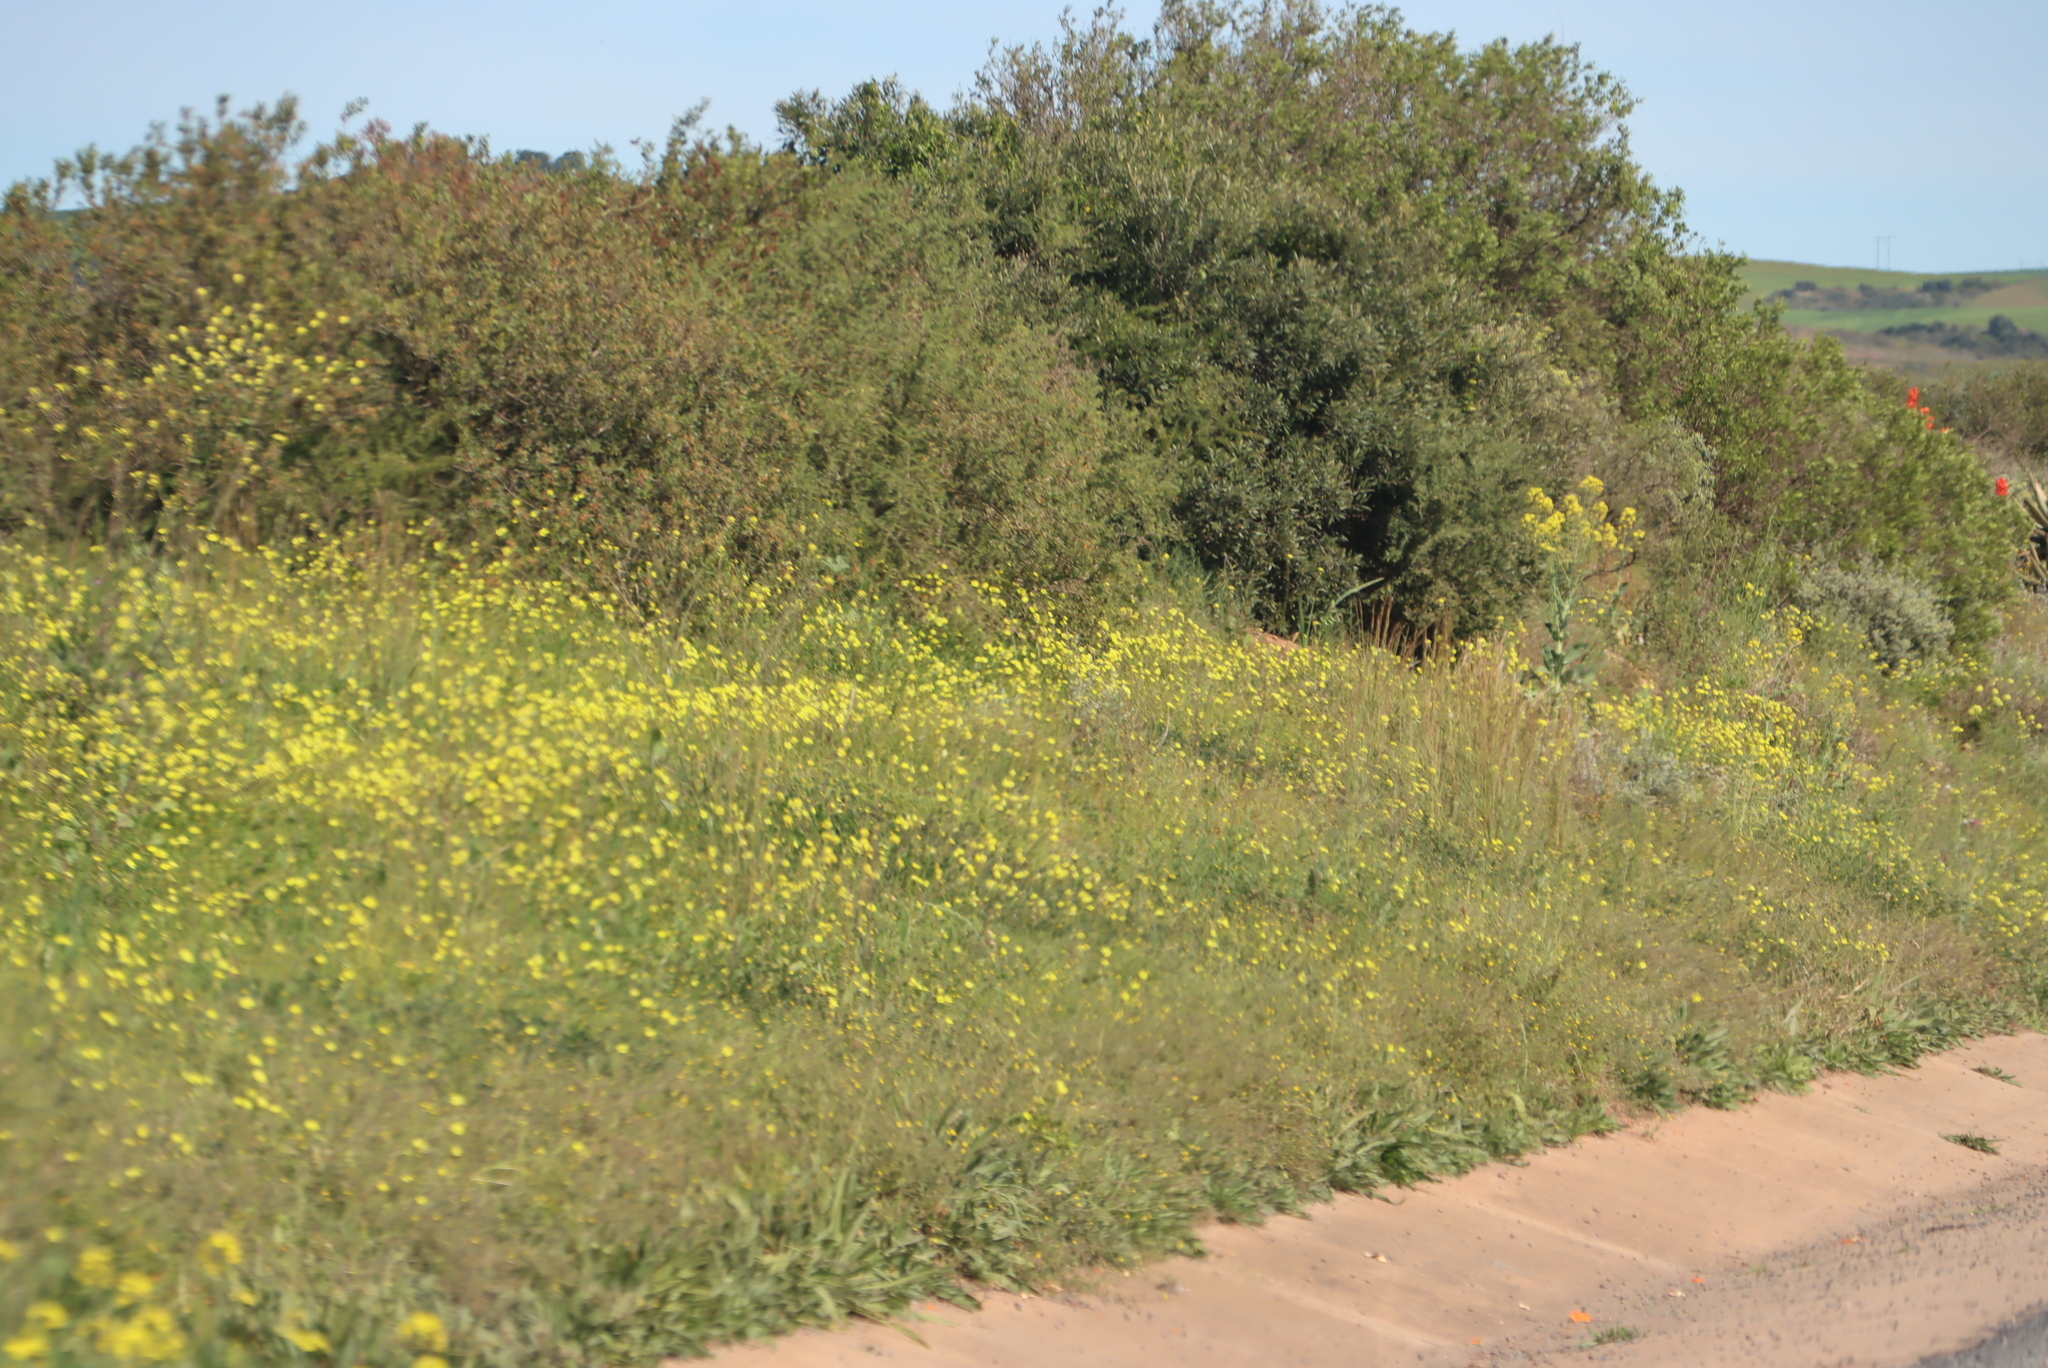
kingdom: Plantae
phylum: Tracheophyta
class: Magnoliopsida
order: Oxalidales
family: Oxalidaceae
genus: Oxalis
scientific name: Oxalis pes-caprae
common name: Bermuda-buttercup
